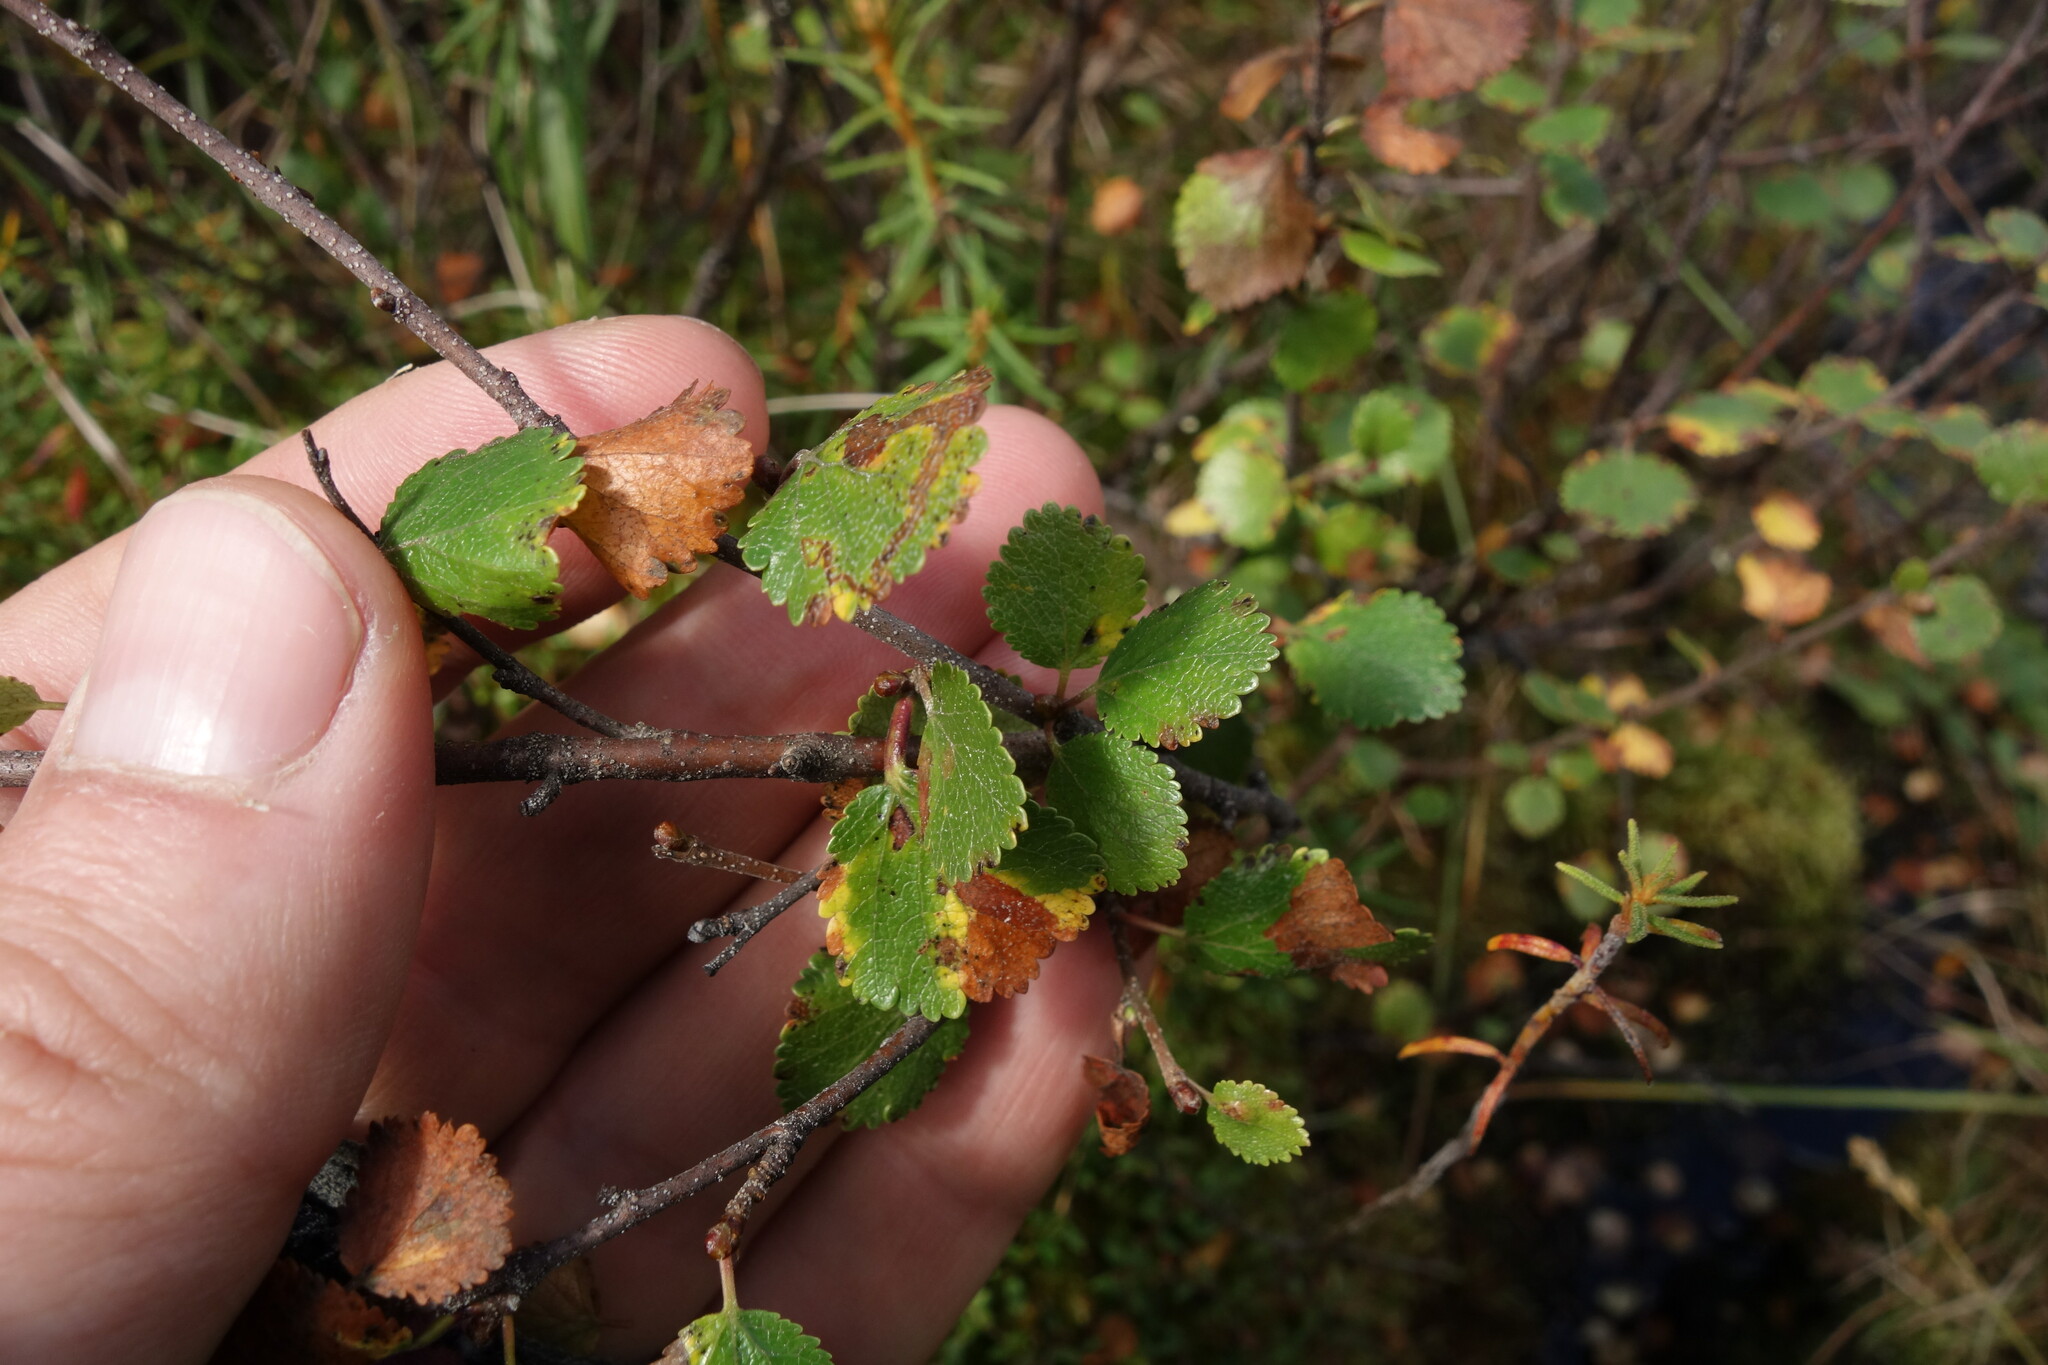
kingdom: Plantae
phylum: Tracheophyta
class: Magnoliopsida
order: Fagales
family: Betulaceae
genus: Betula
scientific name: Betula nana
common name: Arctic dwarf birch
